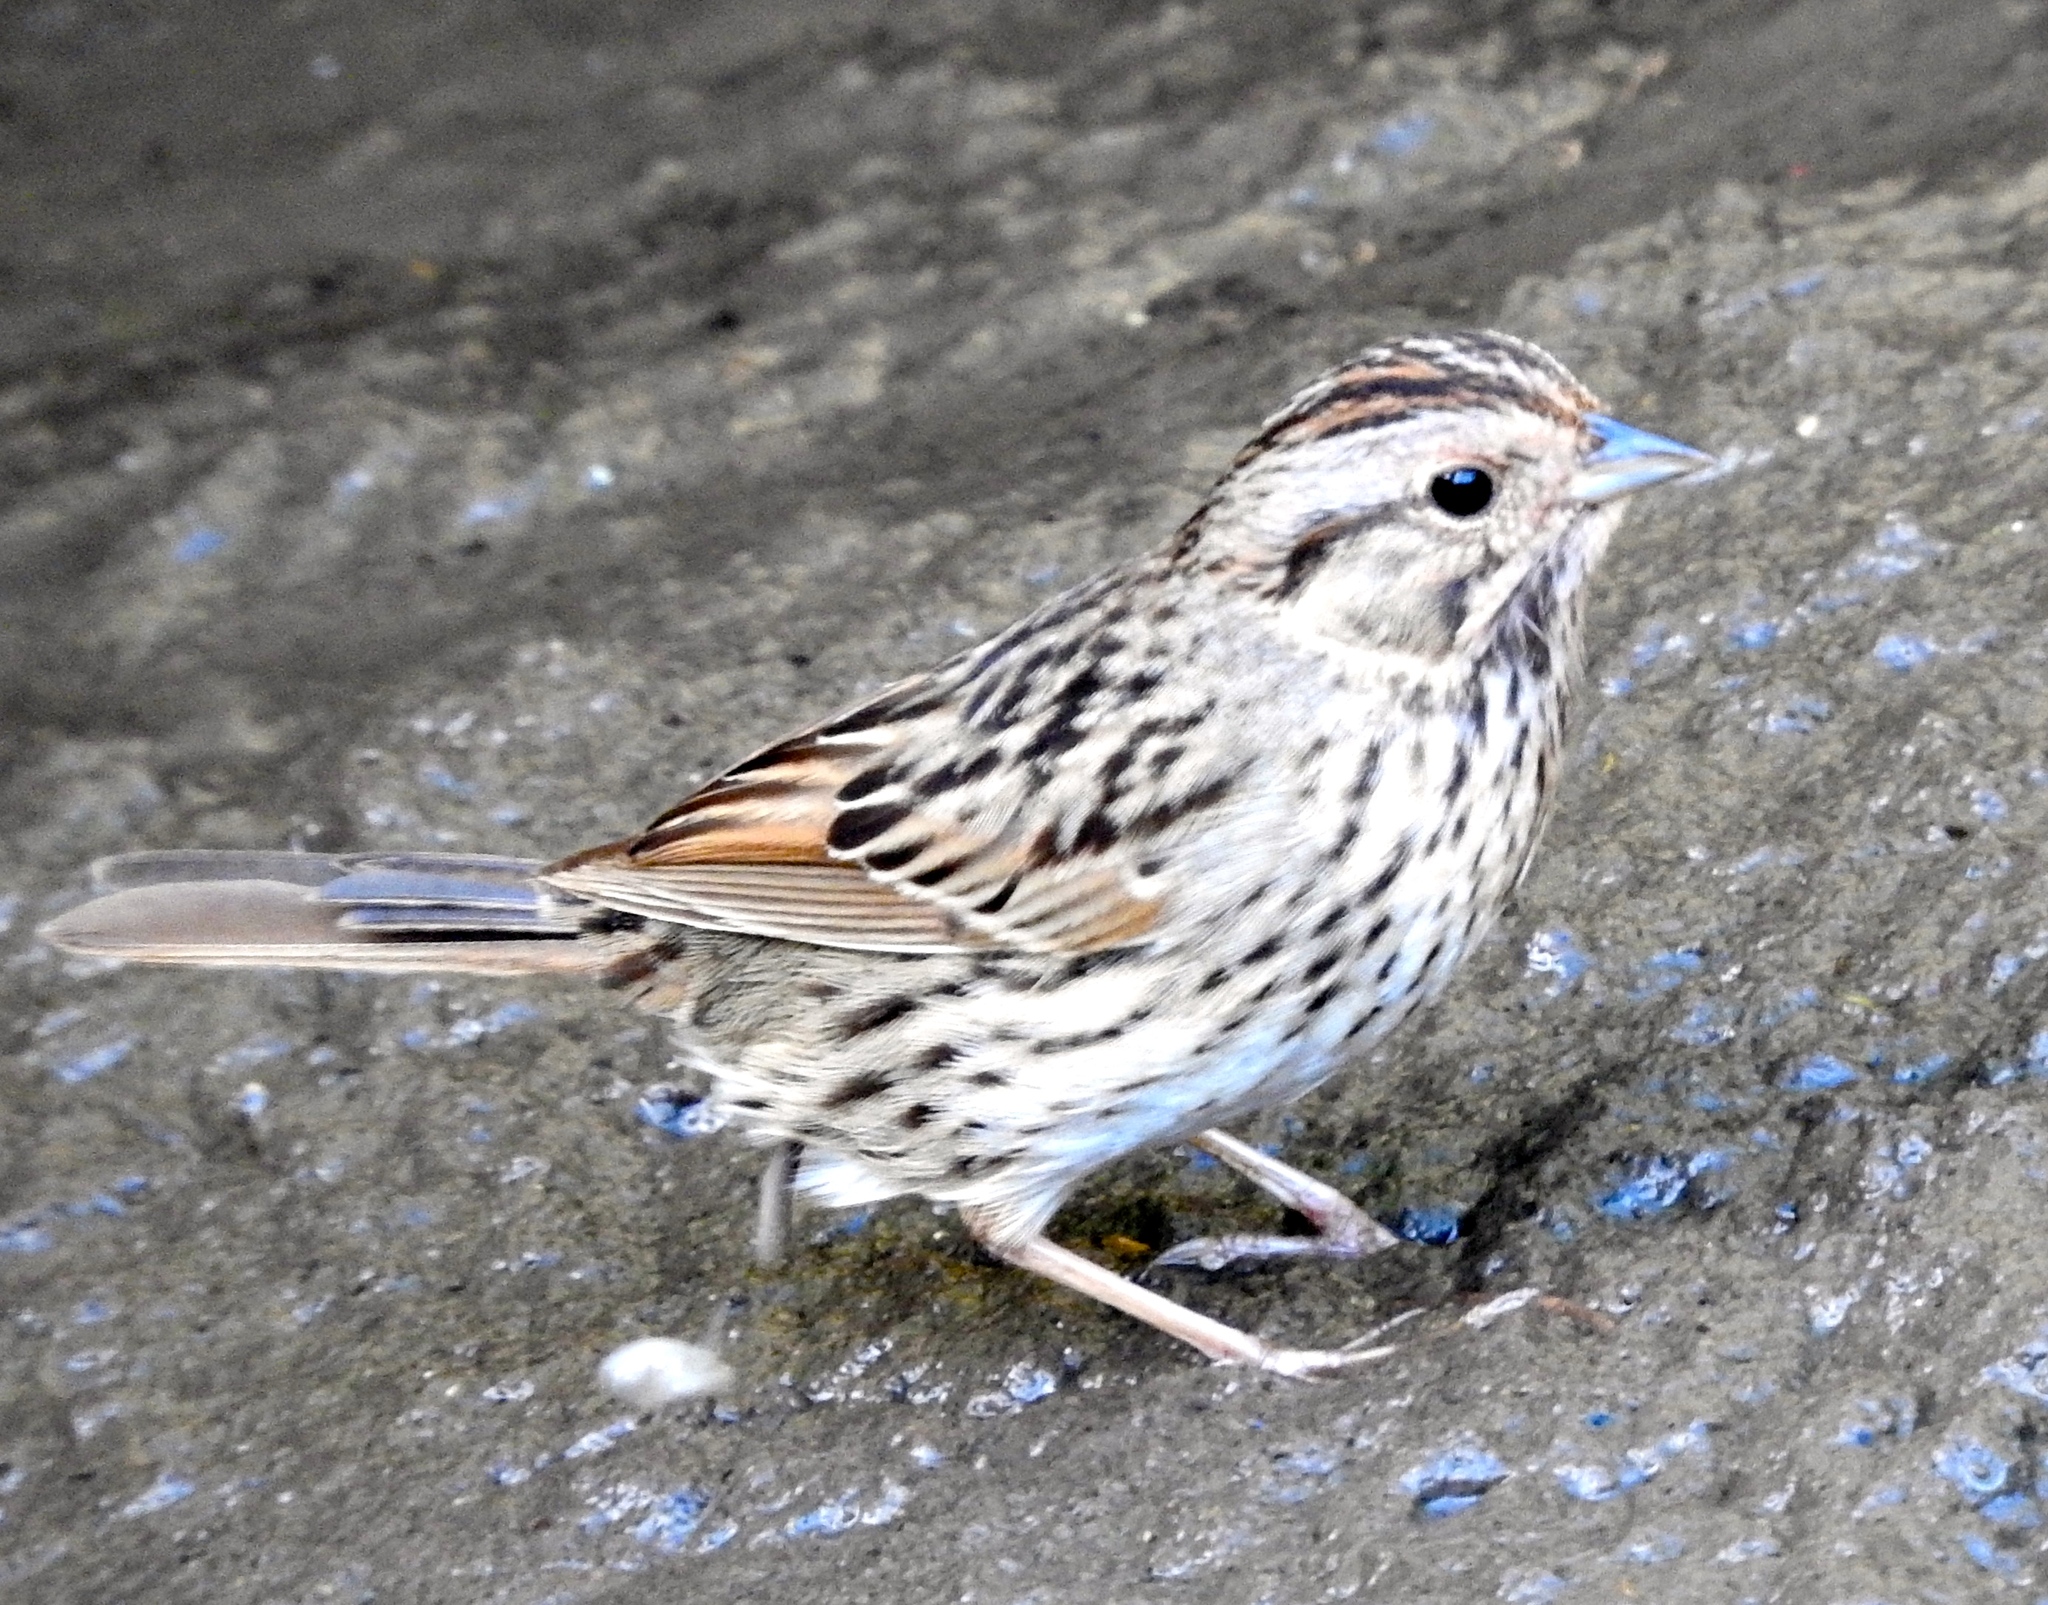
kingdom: Animalia
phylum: Chordata
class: Aves
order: Passeriformes
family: Passerellidae
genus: Melospiza
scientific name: Melospiza lincolnii
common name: Lincoln's sparrow
